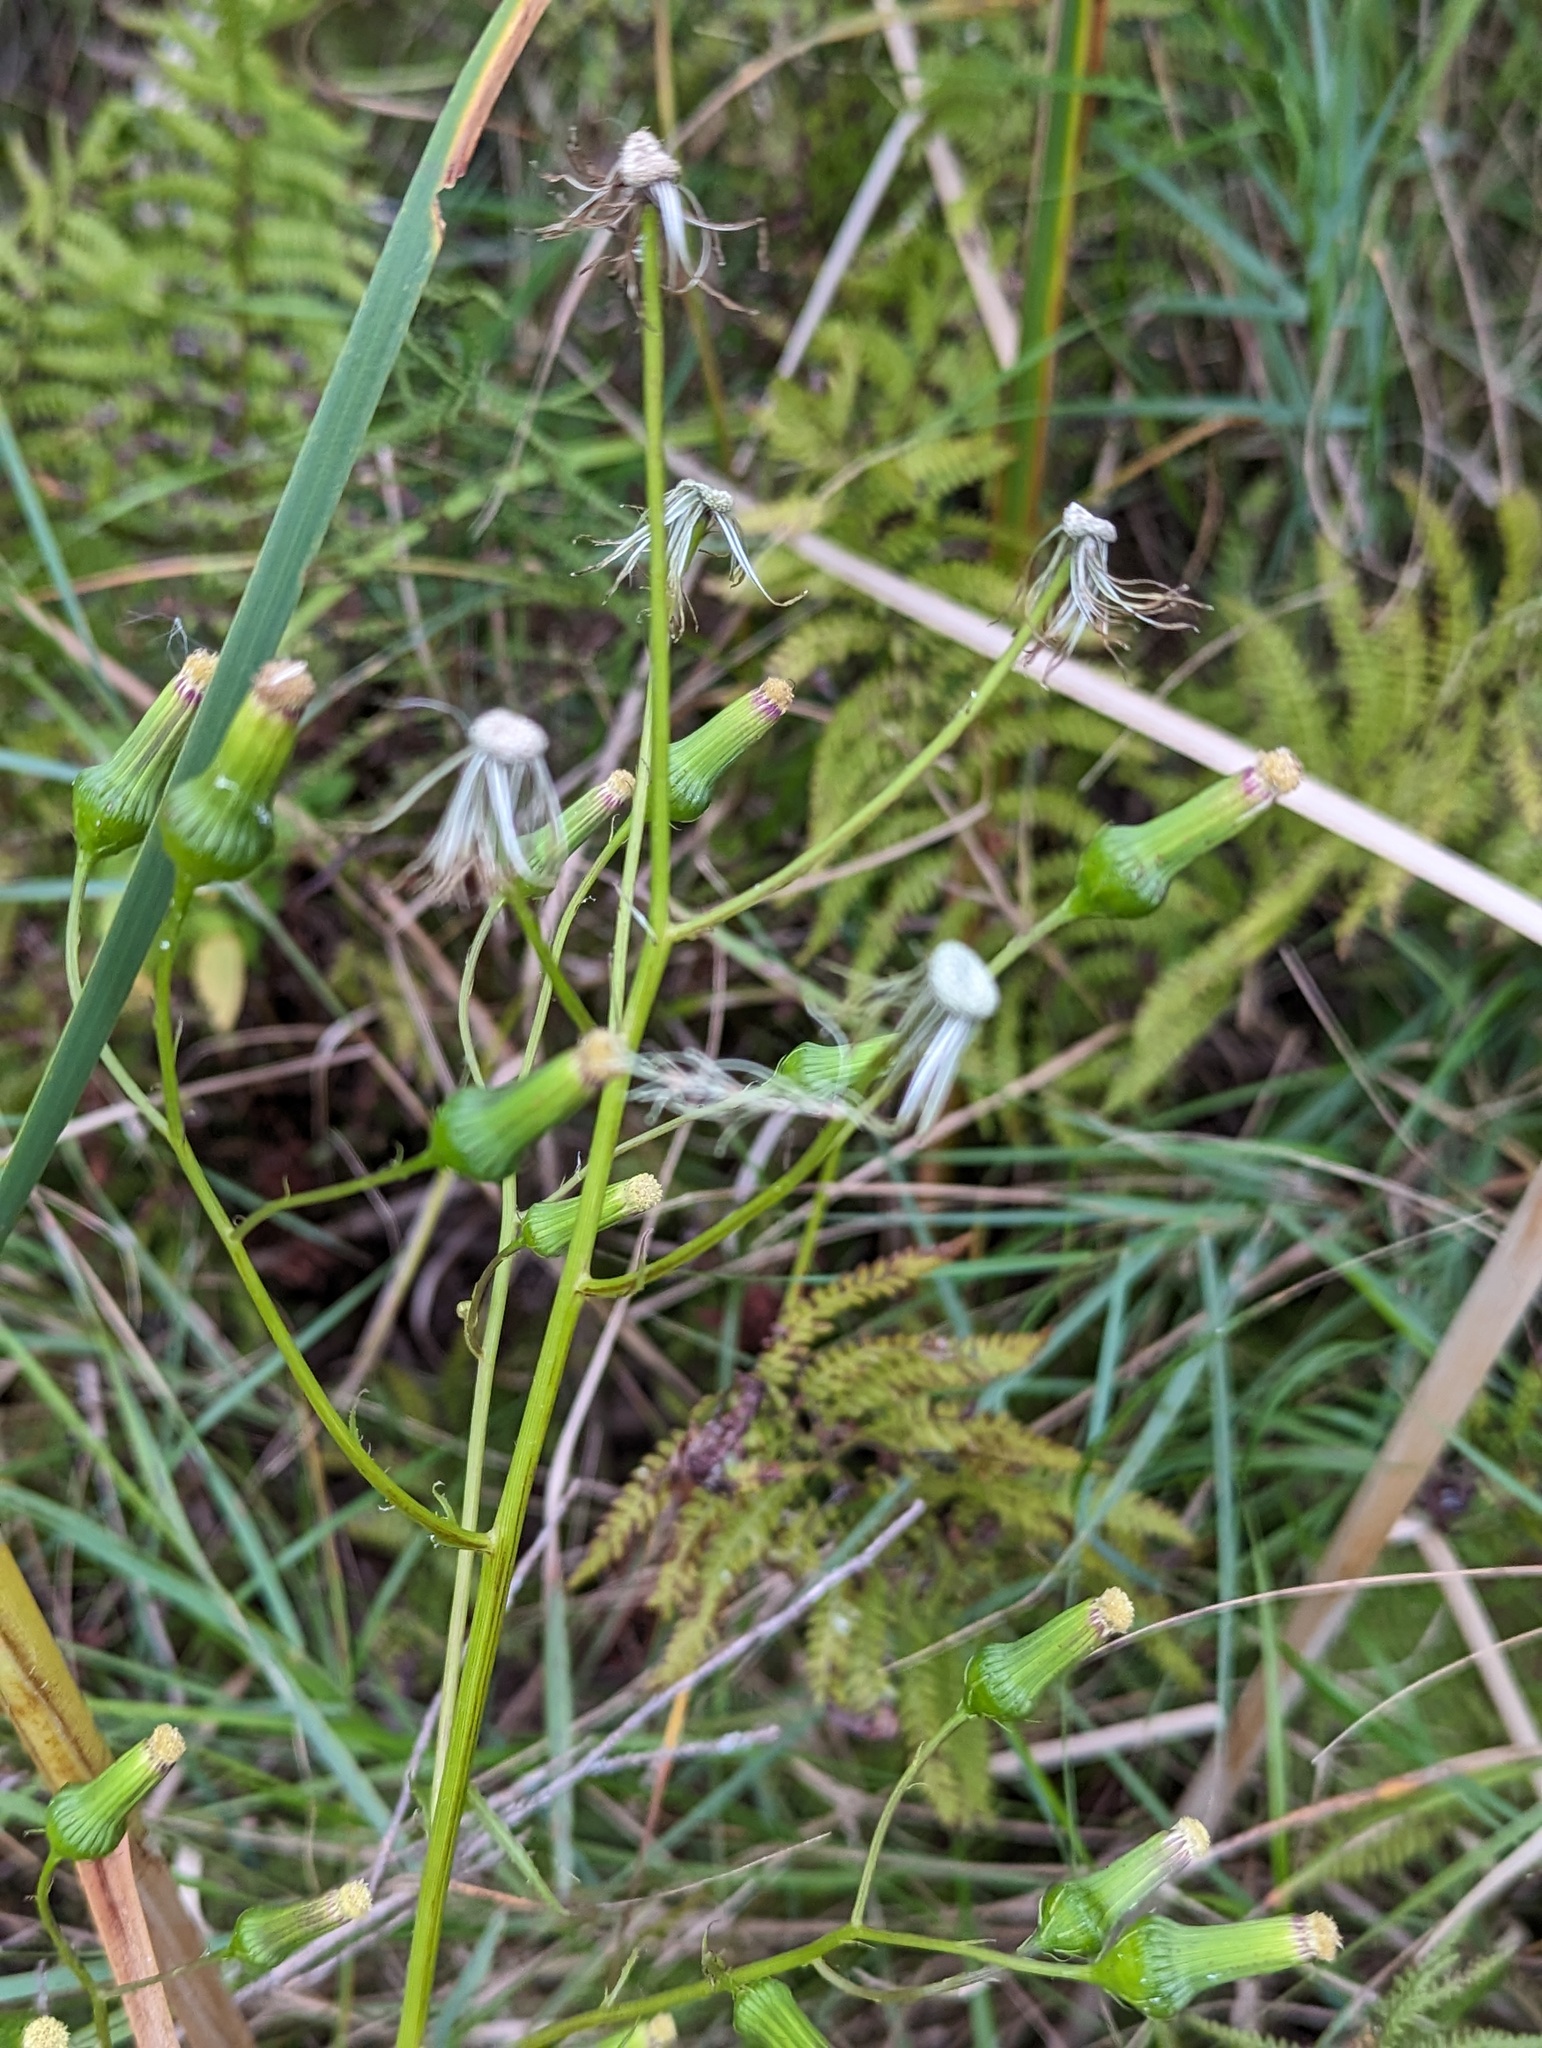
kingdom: Plantae
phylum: Tracheophyta
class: Magnoliopsida
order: Asterales
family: Asteraceae
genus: Erechtites
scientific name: Erechtites hieraciifolius
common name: American burnweed
